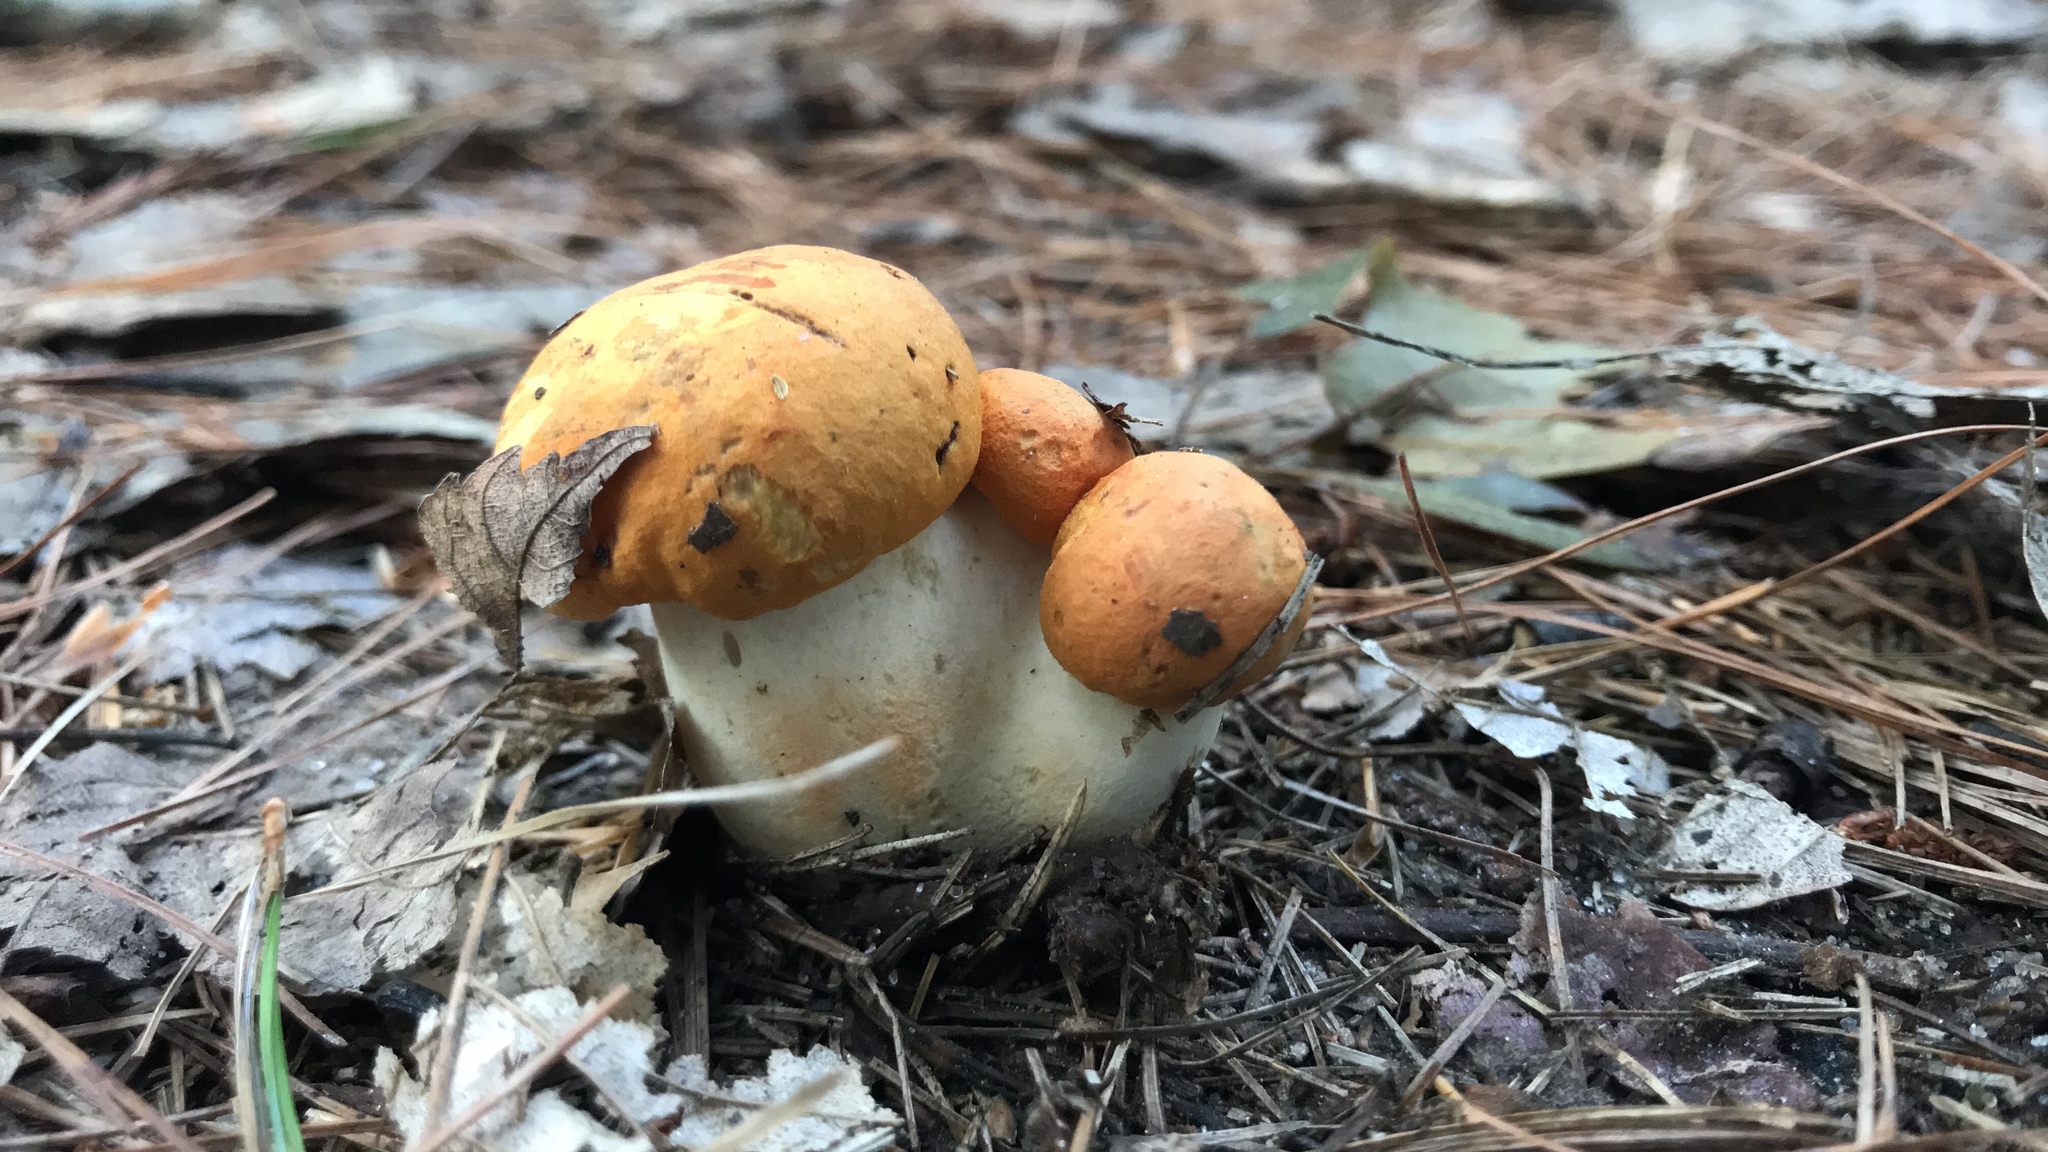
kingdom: Fungi
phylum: Basidiomycota
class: Agaricomycetes
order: Boletales
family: Boletaceae
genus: Tylopilus
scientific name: Tylopilus balloui
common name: Burnt-orange bolete
